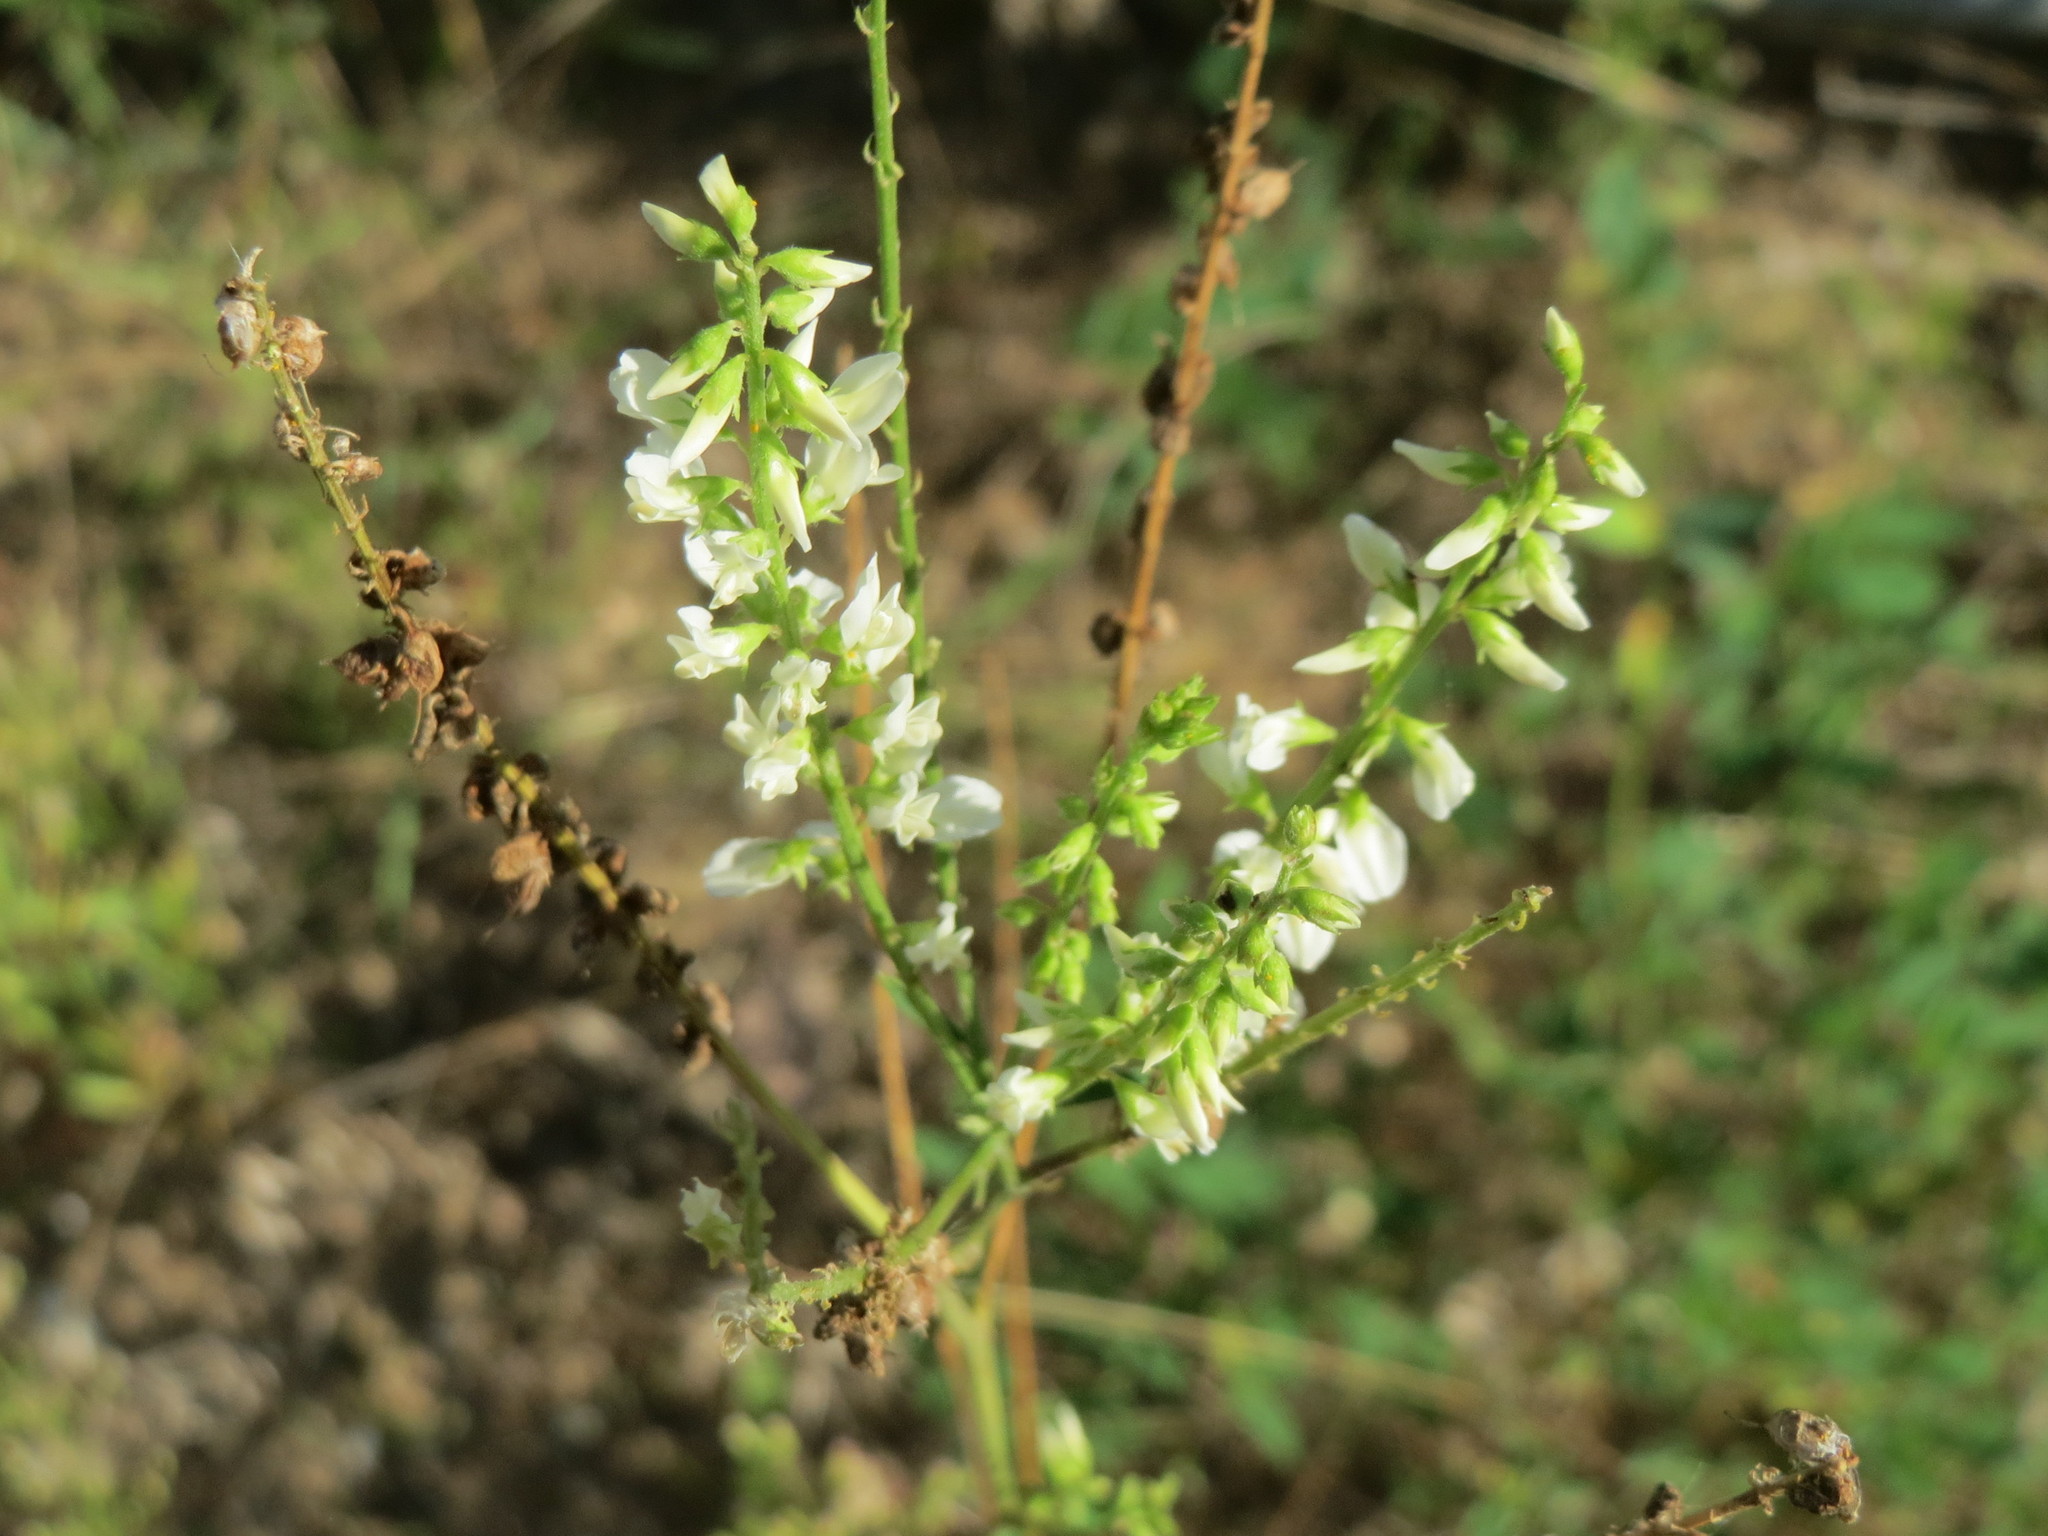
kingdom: Plantae
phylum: Tracheophyta
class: Magnoliopsida
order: Fabales
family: Fabaceae
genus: Melilotus
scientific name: Melilotus albus
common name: White melilot
